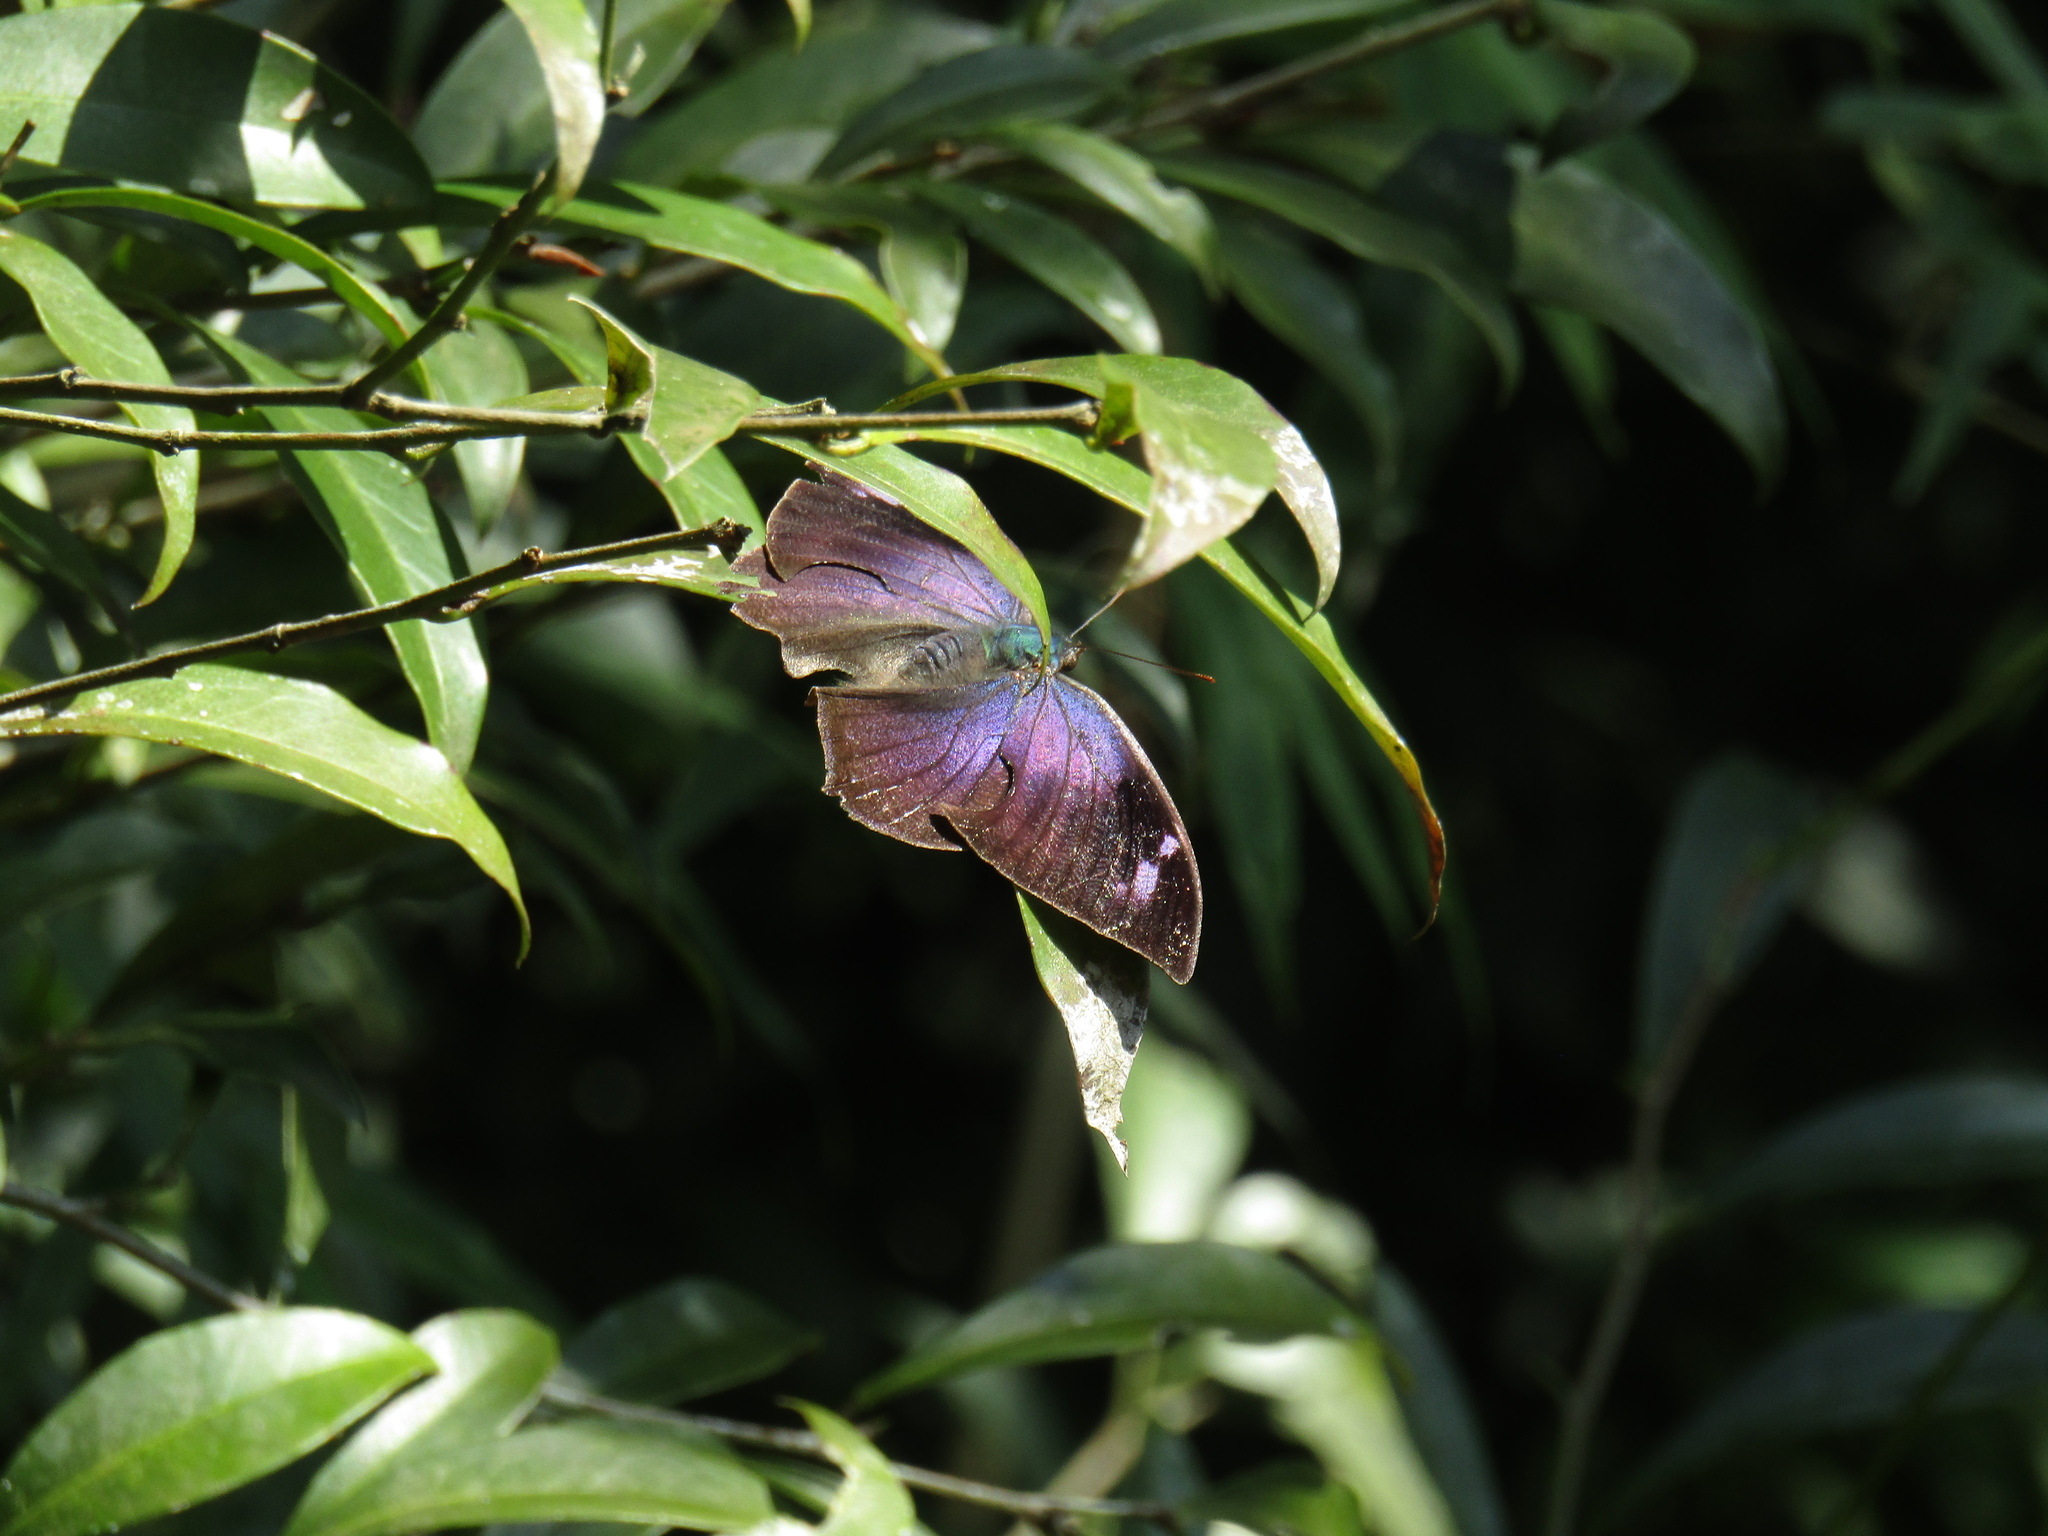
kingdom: Animalia
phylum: Arthropoda
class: Insecta
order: Lepidoptera
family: Nymphalidae
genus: Memphis
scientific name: Memphis moruus
